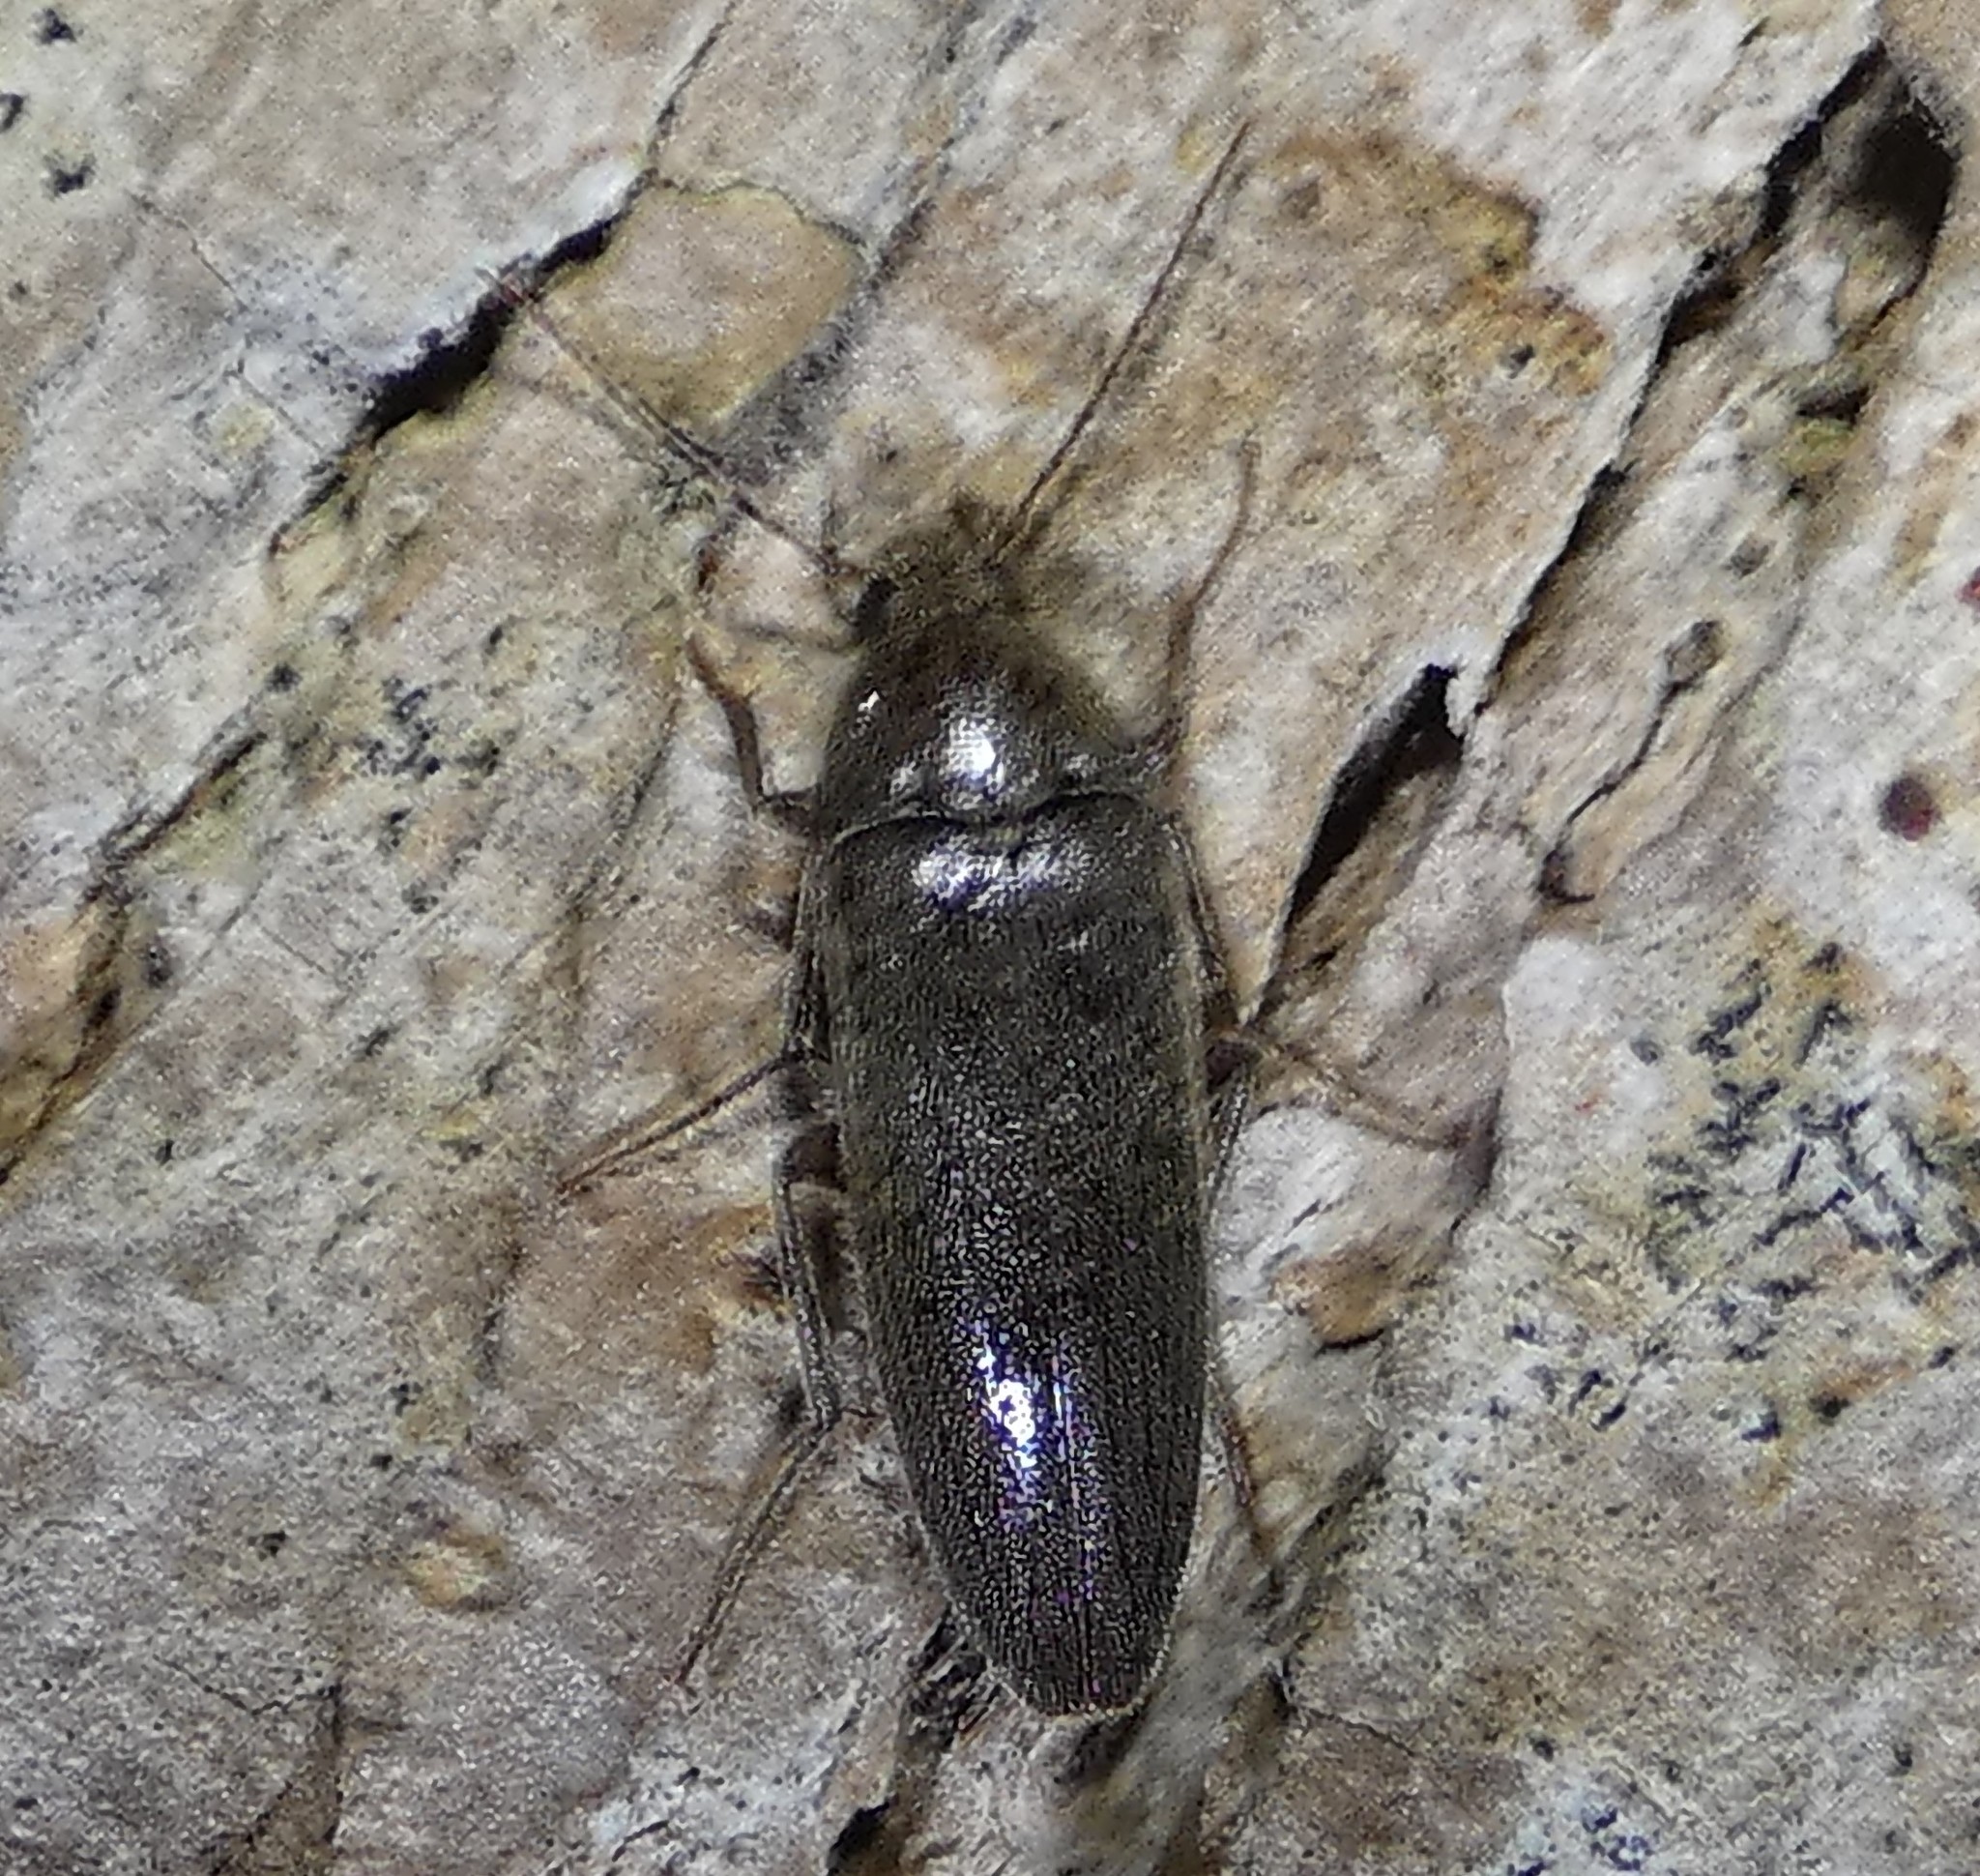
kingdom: Animalia
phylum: Arthropoda
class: Insecta
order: Coleoptera
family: Synchroidae
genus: Synchroa
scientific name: Synchroa punctata
